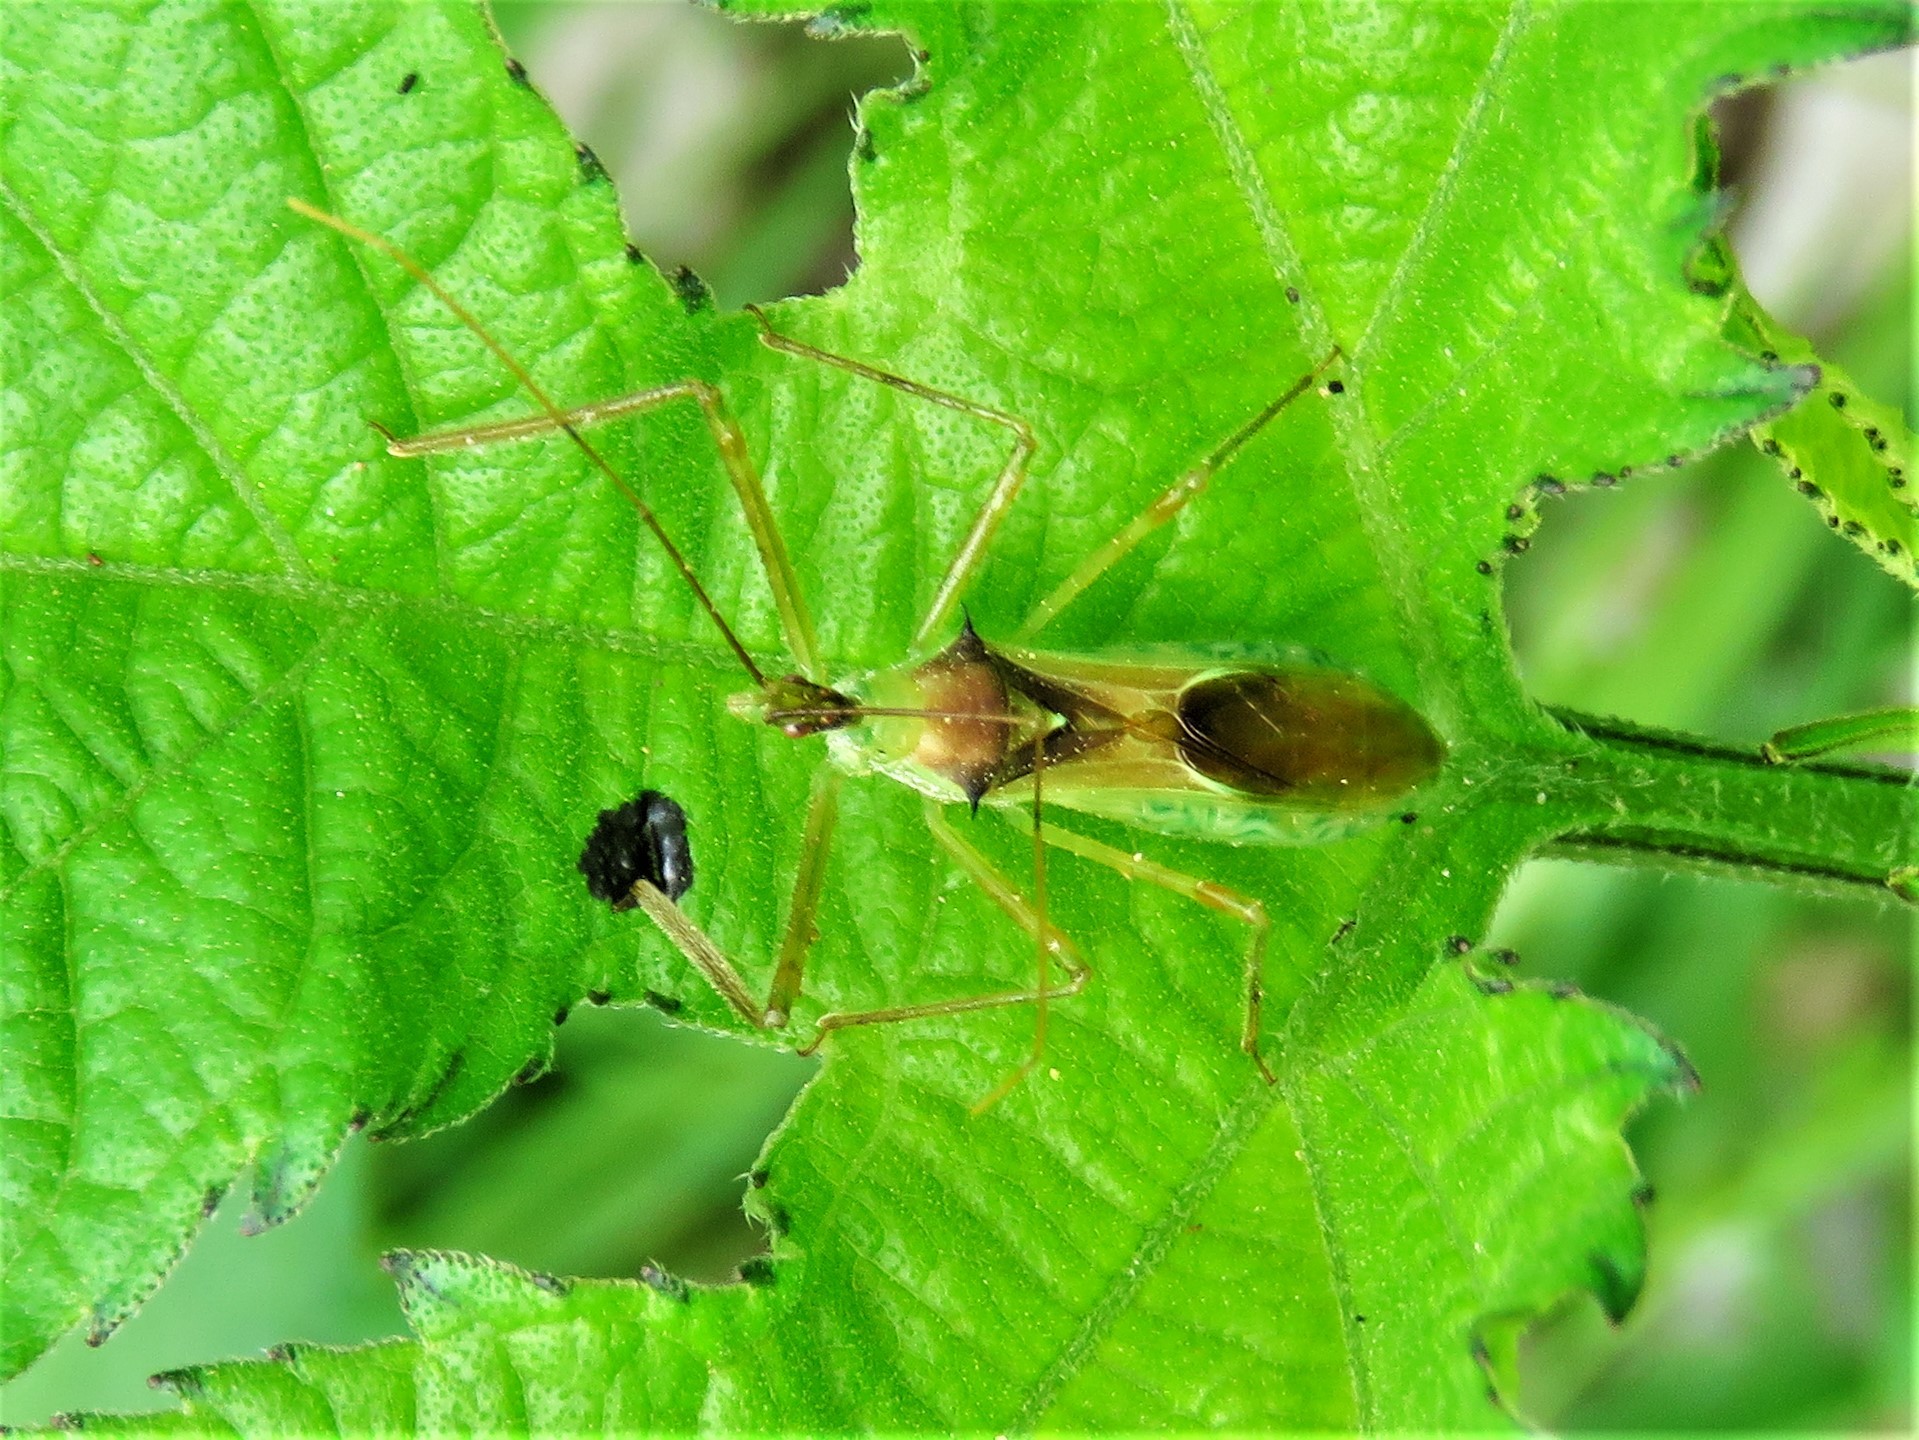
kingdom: Animalia
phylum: Arthropoda
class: Insecta
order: Hemiptera
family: Reduviidae
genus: Zelus
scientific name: Zelus luridus
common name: Pale green assassin bug
